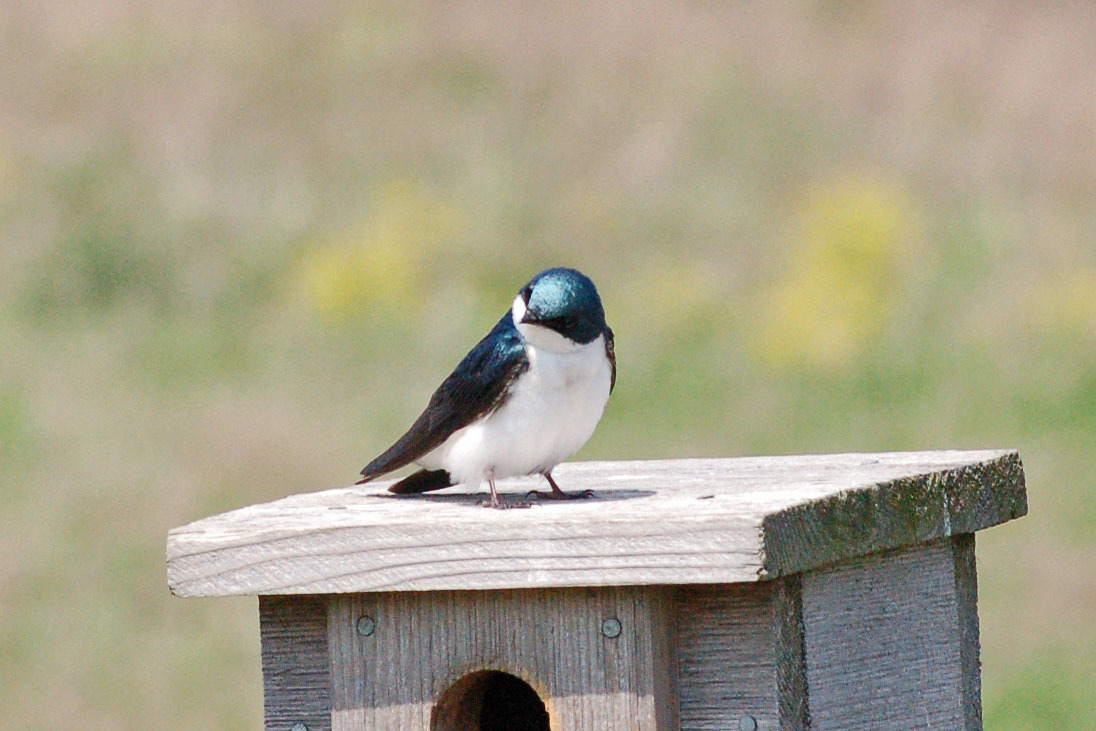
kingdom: Animalia
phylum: Chordata
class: Aves
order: Passeriformes
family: Hirundinidae
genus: Tachycineta
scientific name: Tachycineta bicolor
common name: Tree swallow
